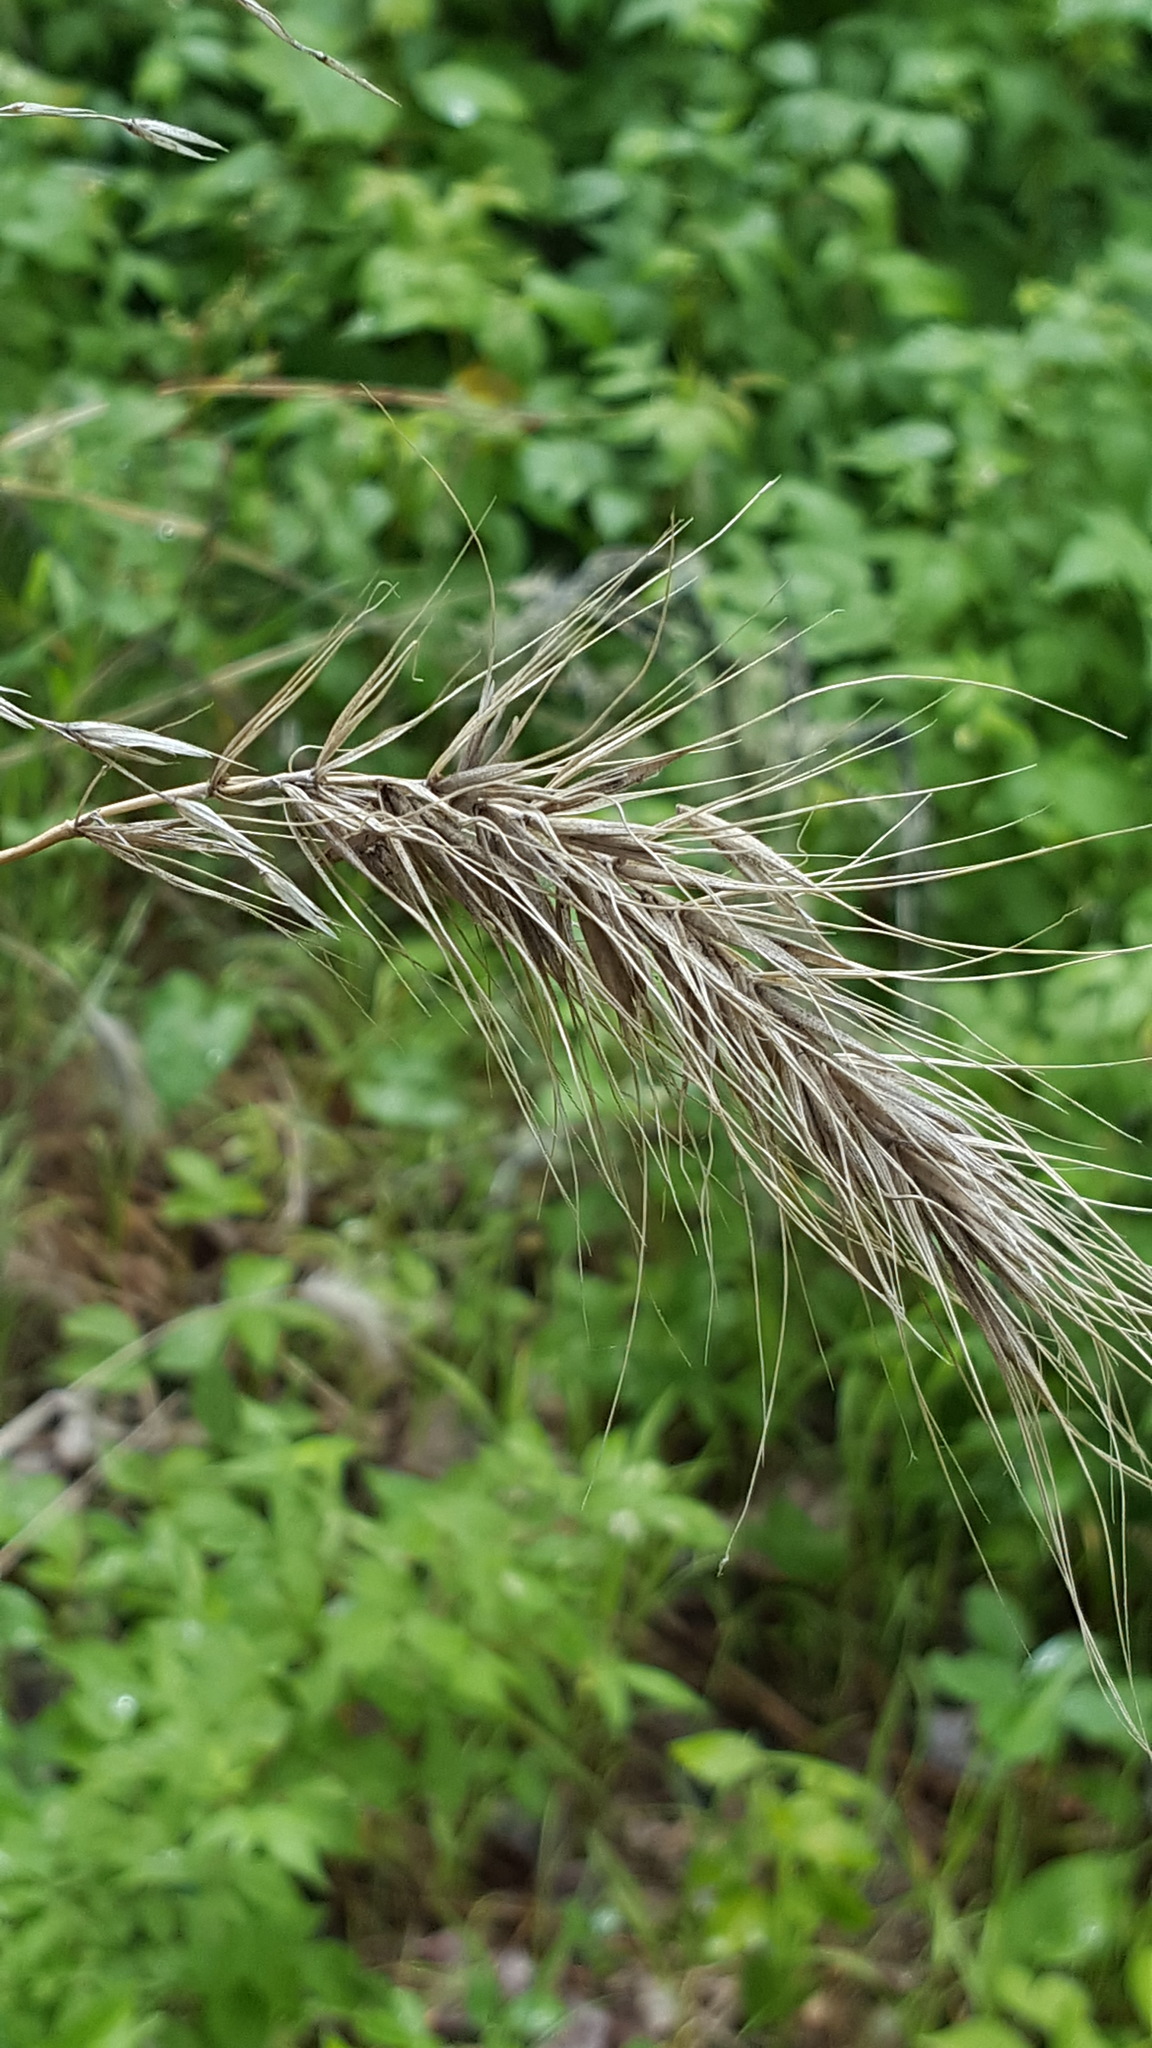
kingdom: Plantae
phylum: Tracheophyta
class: Liliopsida
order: Poales
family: Poaceae
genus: Elymus
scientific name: Elymus virginicus
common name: Common eastern wildrye
